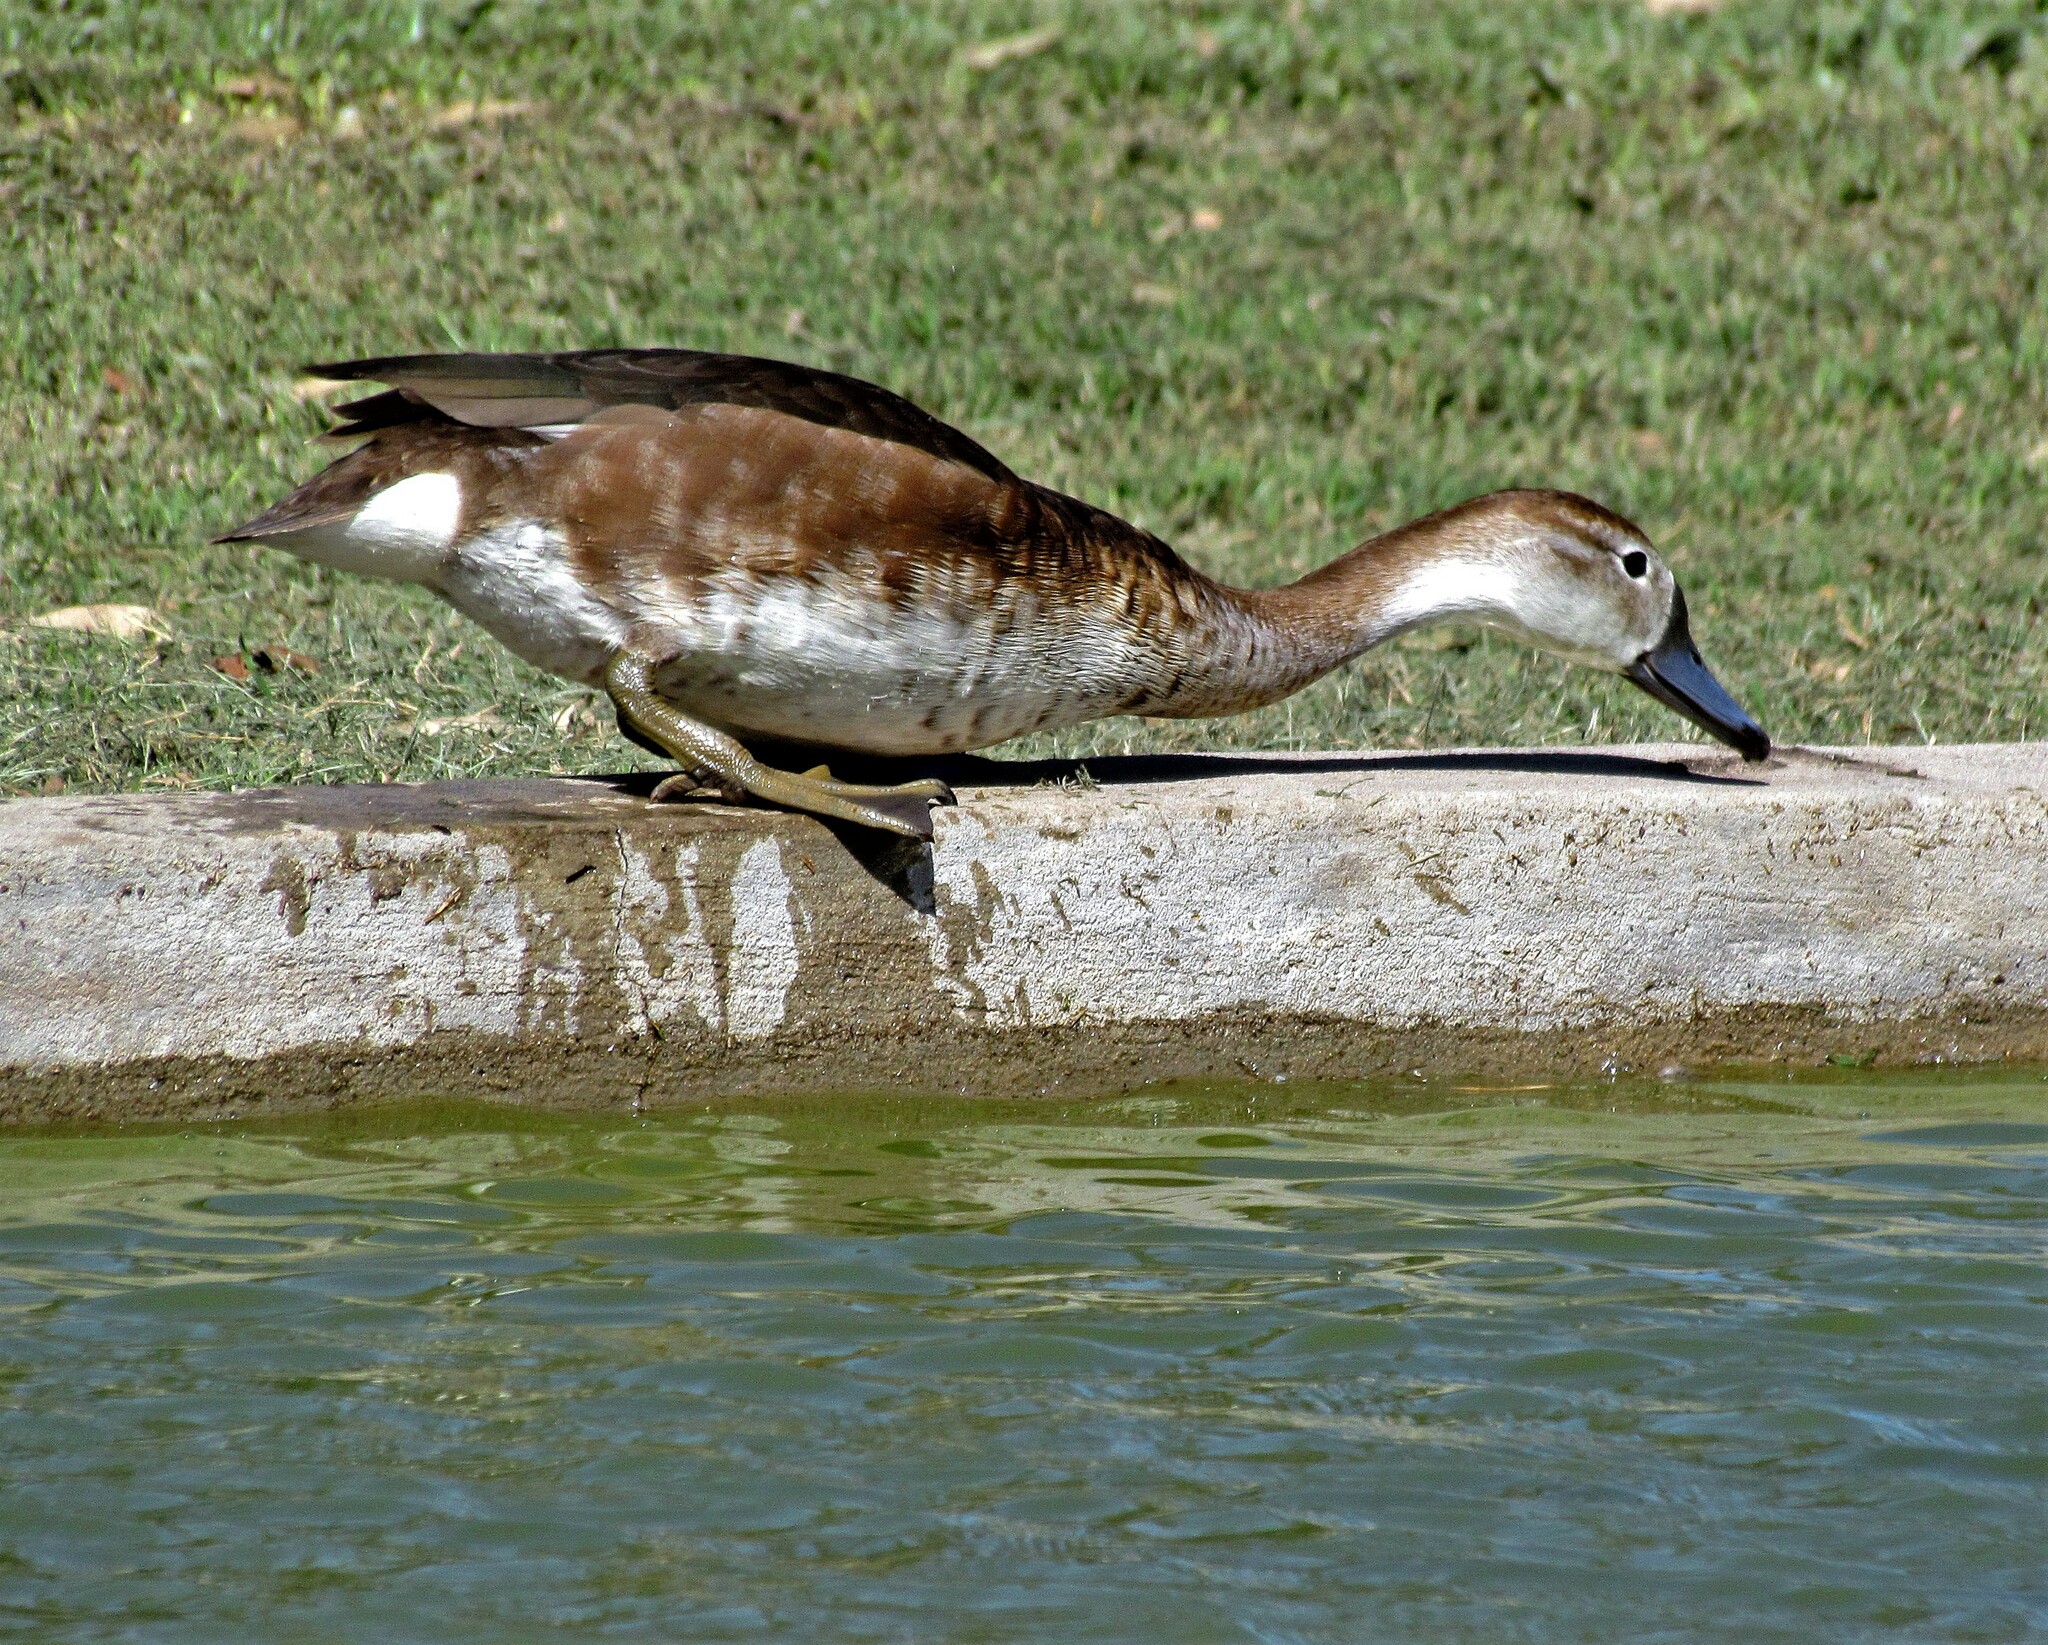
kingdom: Animalia
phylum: Chordata
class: Aves
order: Anseriformes
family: Anatidae
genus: Netta
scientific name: Netta peposaca
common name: Rosy-billed pochard
